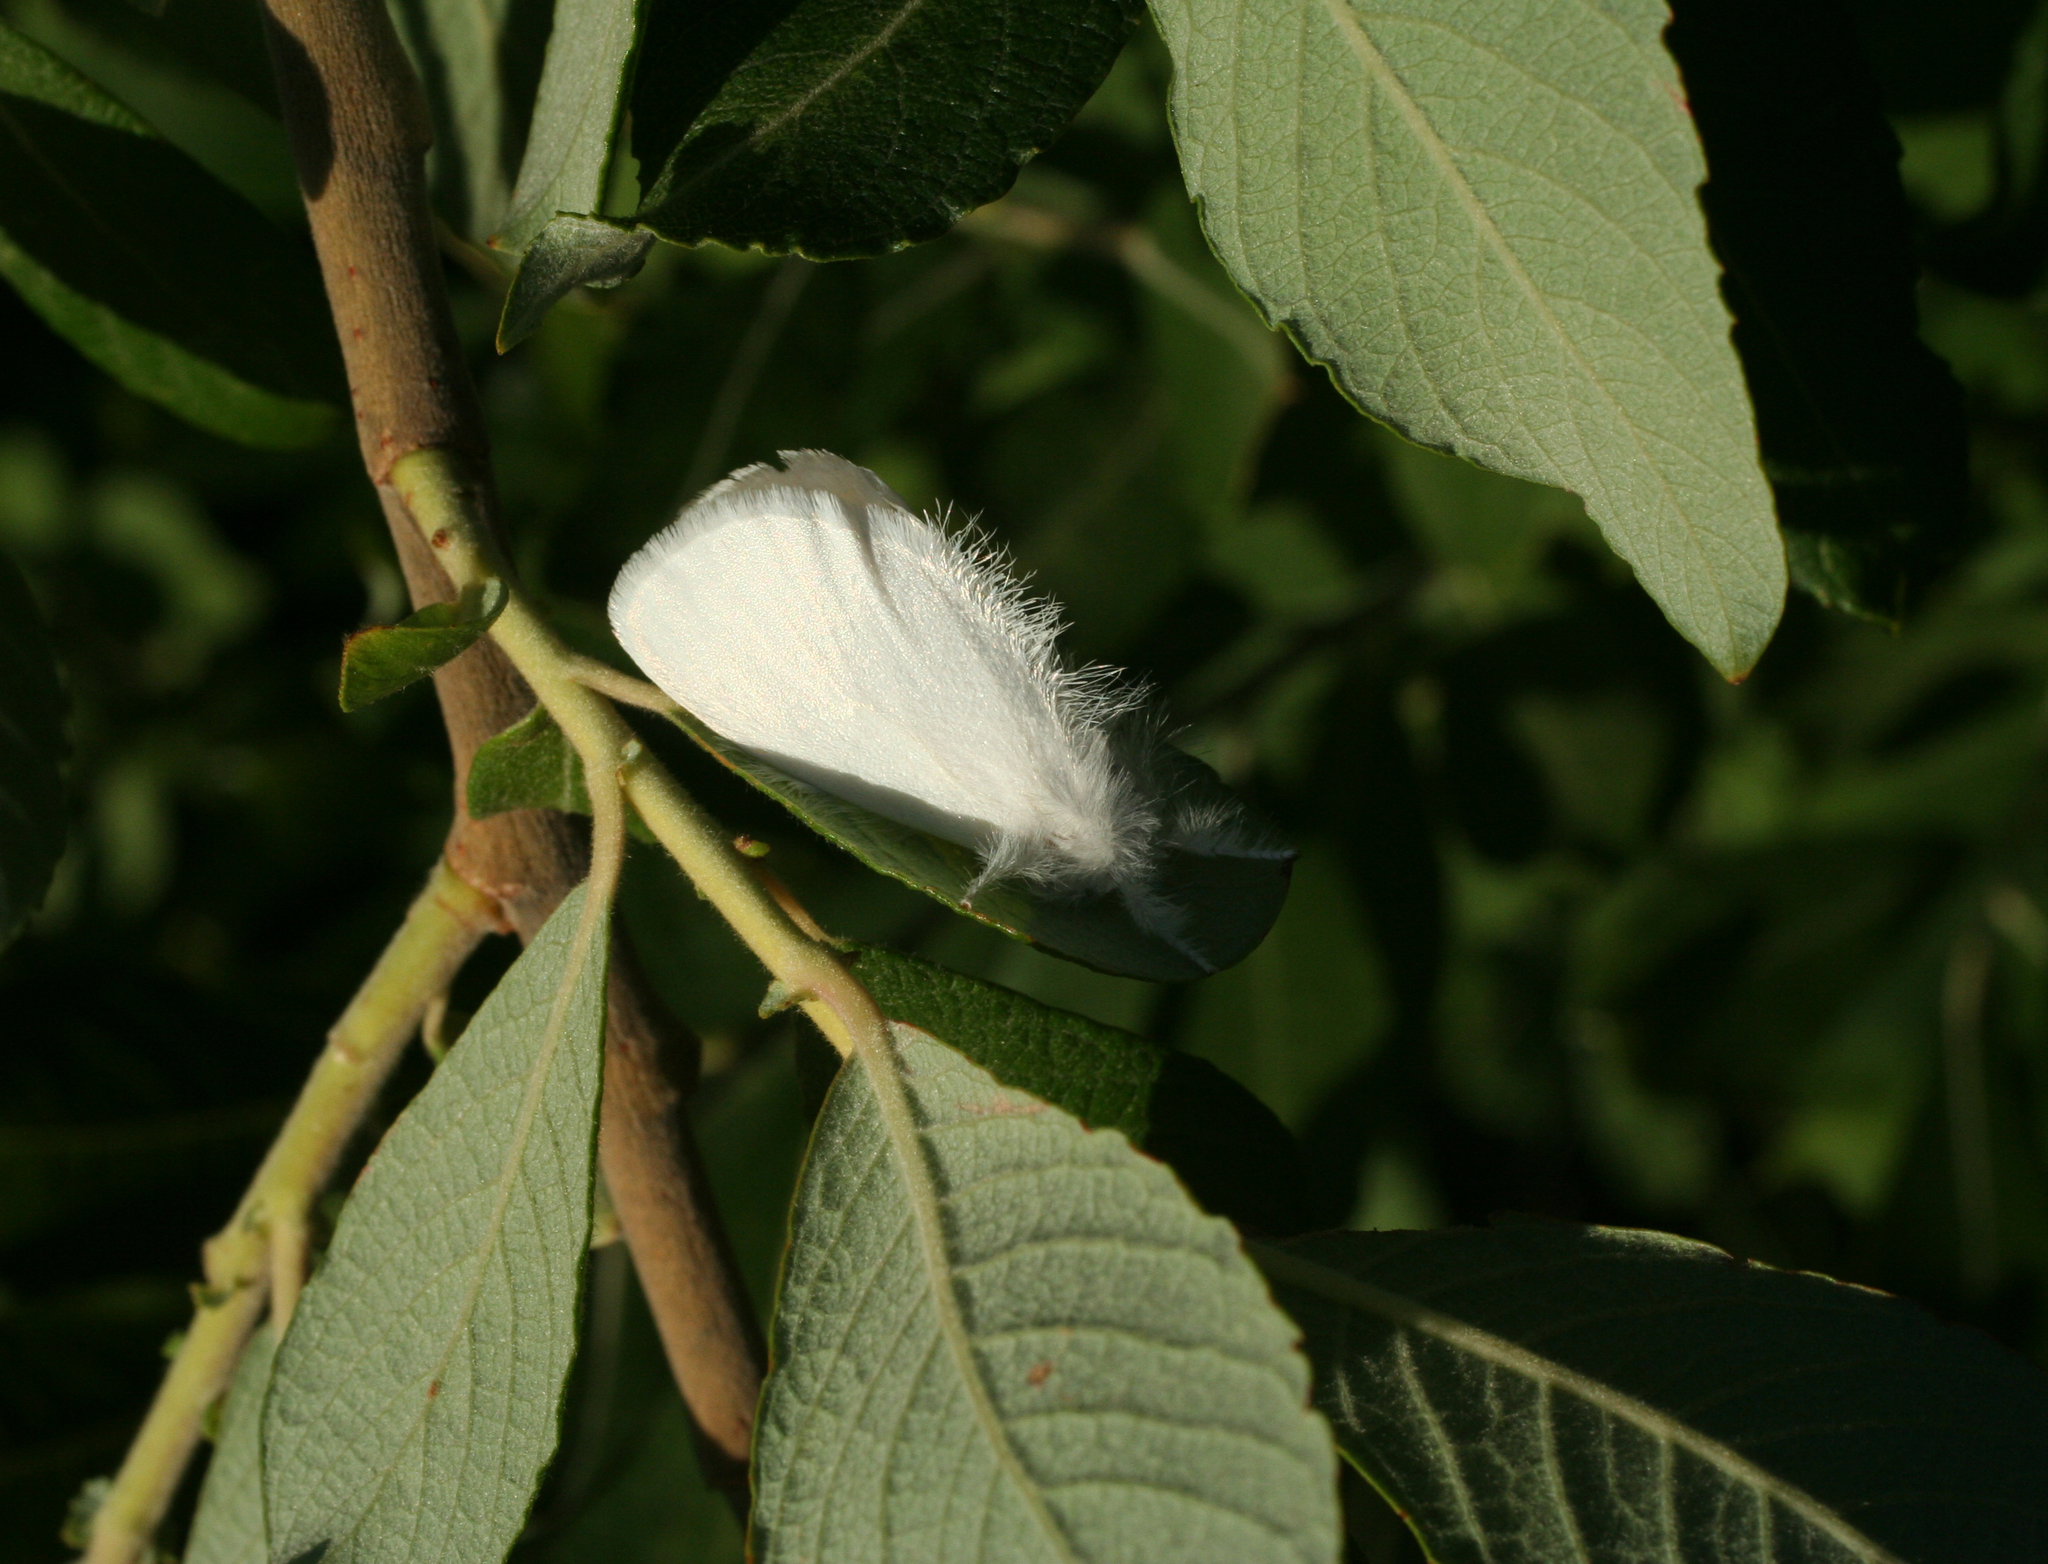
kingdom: Animalia
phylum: Arthropoda
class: Insecta
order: Lepidoptera
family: Erebidae
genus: Sphrageidus
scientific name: Sphrageidus similis
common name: Yellow-tail
